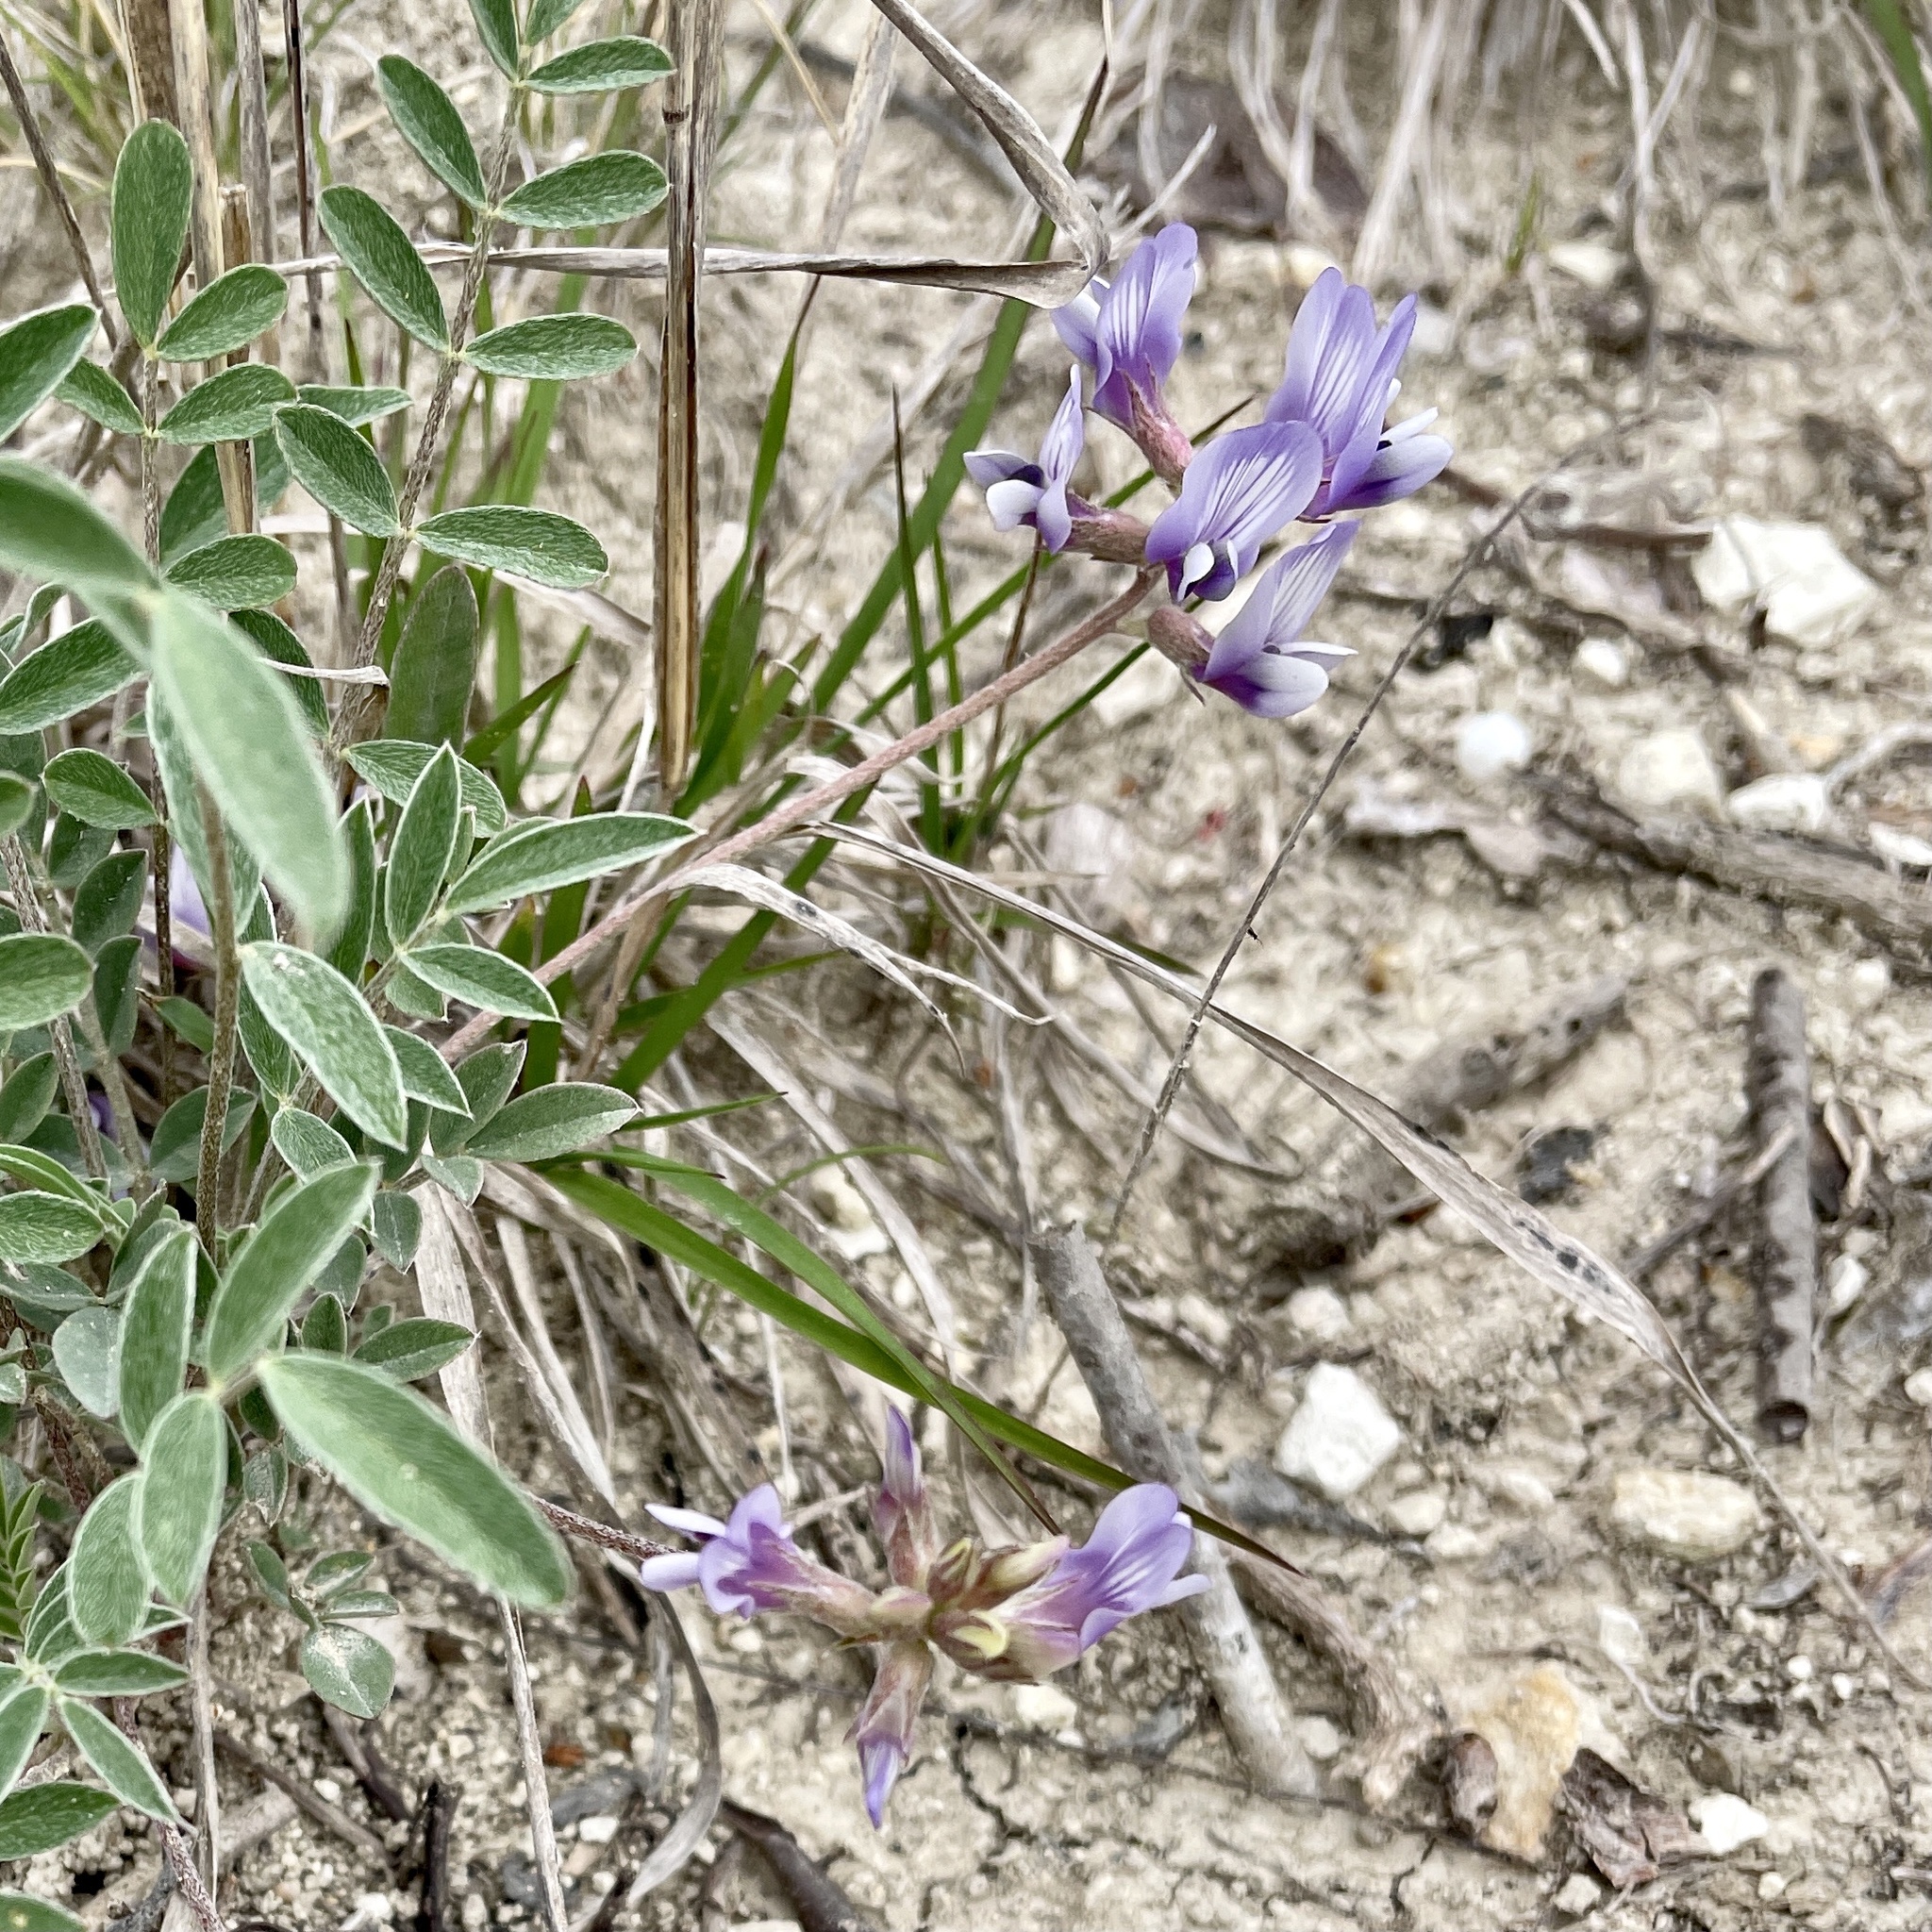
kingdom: Plantae
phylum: Tracheophyta
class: Magnoliopsida
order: Fabales
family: Fabaceae
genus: Astragalus
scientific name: Astragalus lotiflorus
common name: Lotus milk-vetch
